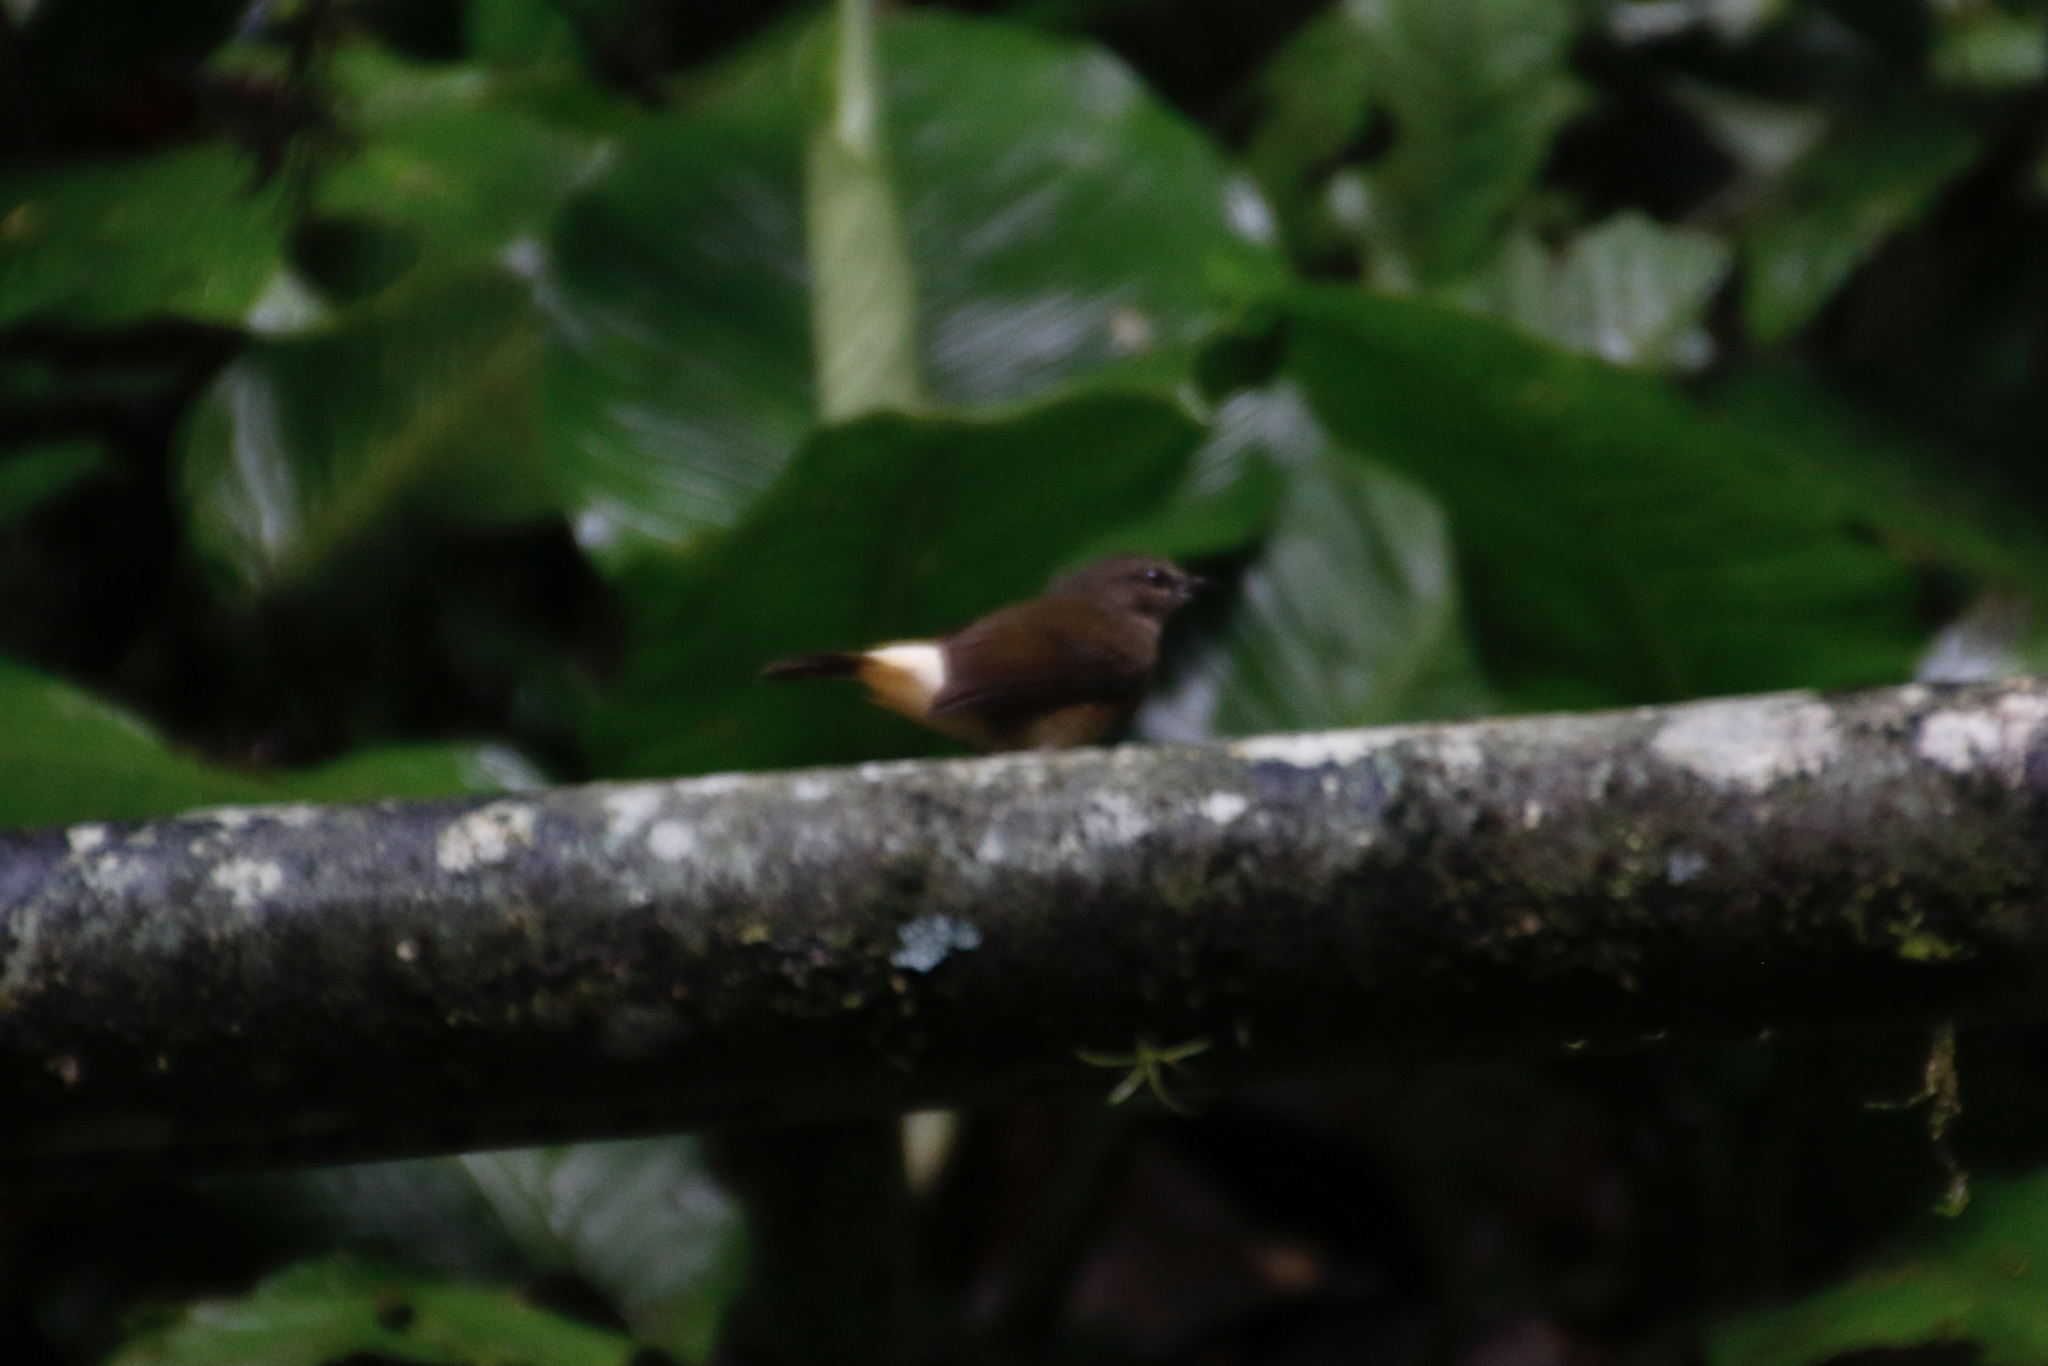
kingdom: Animalia
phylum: Chordata
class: Aves
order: Passeriformes
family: Parulidae
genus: Myiothlypis
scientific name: Myiothlypis fulvicauda
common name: Buff-rumped warbler
